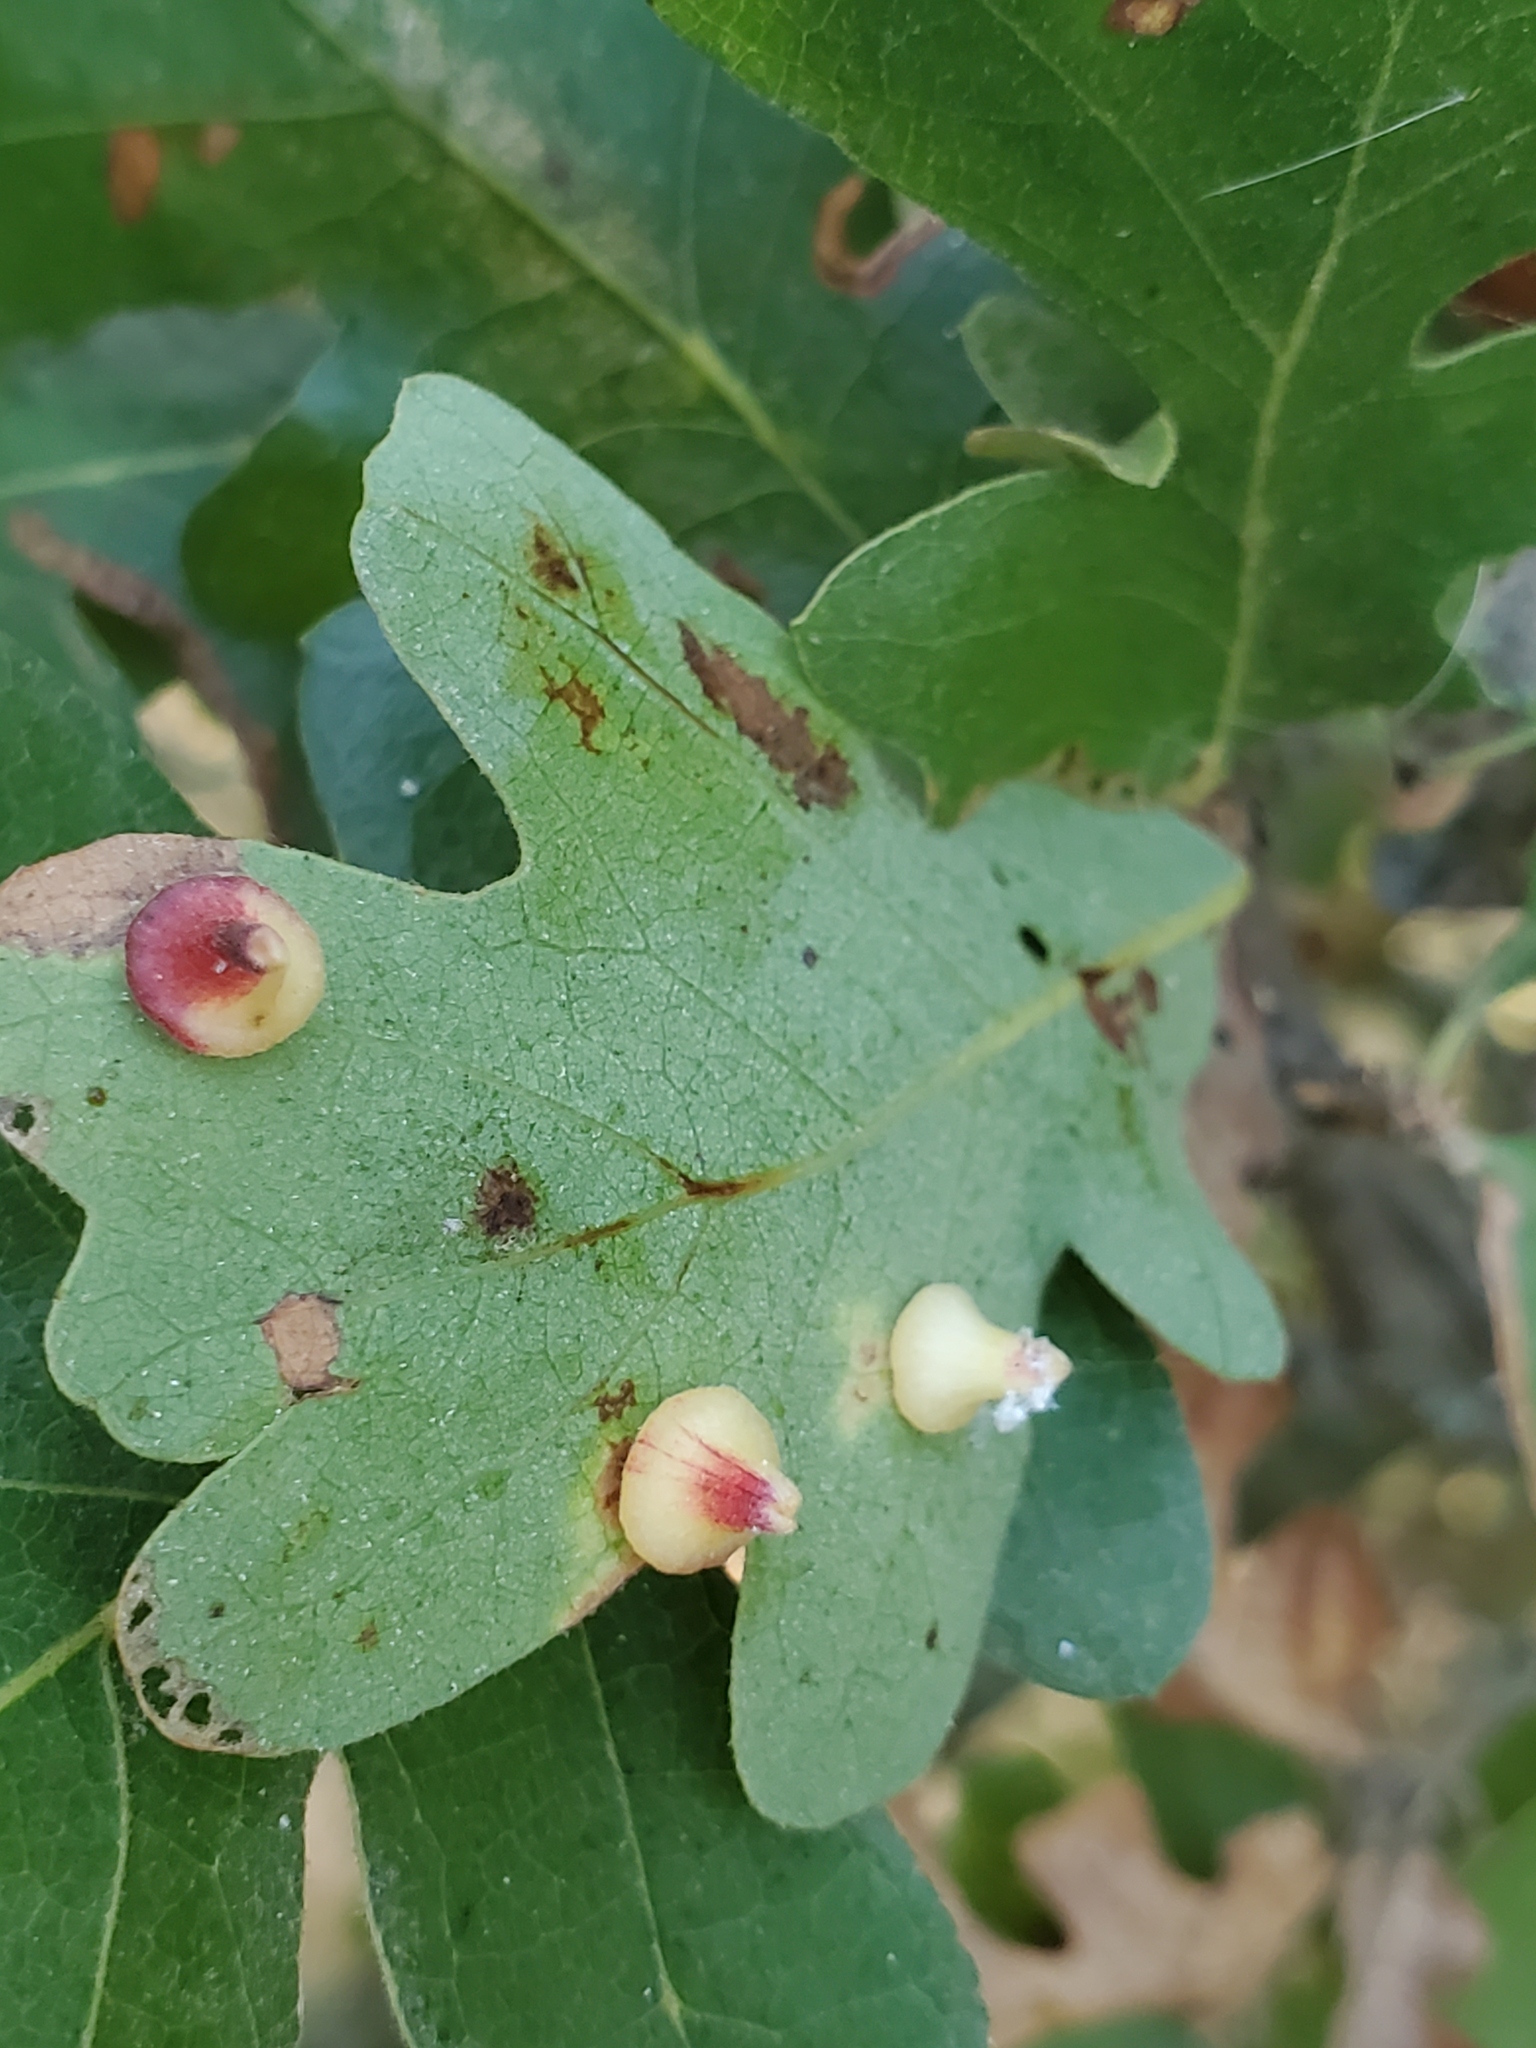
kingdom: Animalia
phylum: Arthropoda
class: Insecta
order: Hymenoptera
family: Cynipidae
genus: Andricus
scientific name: Andricus
